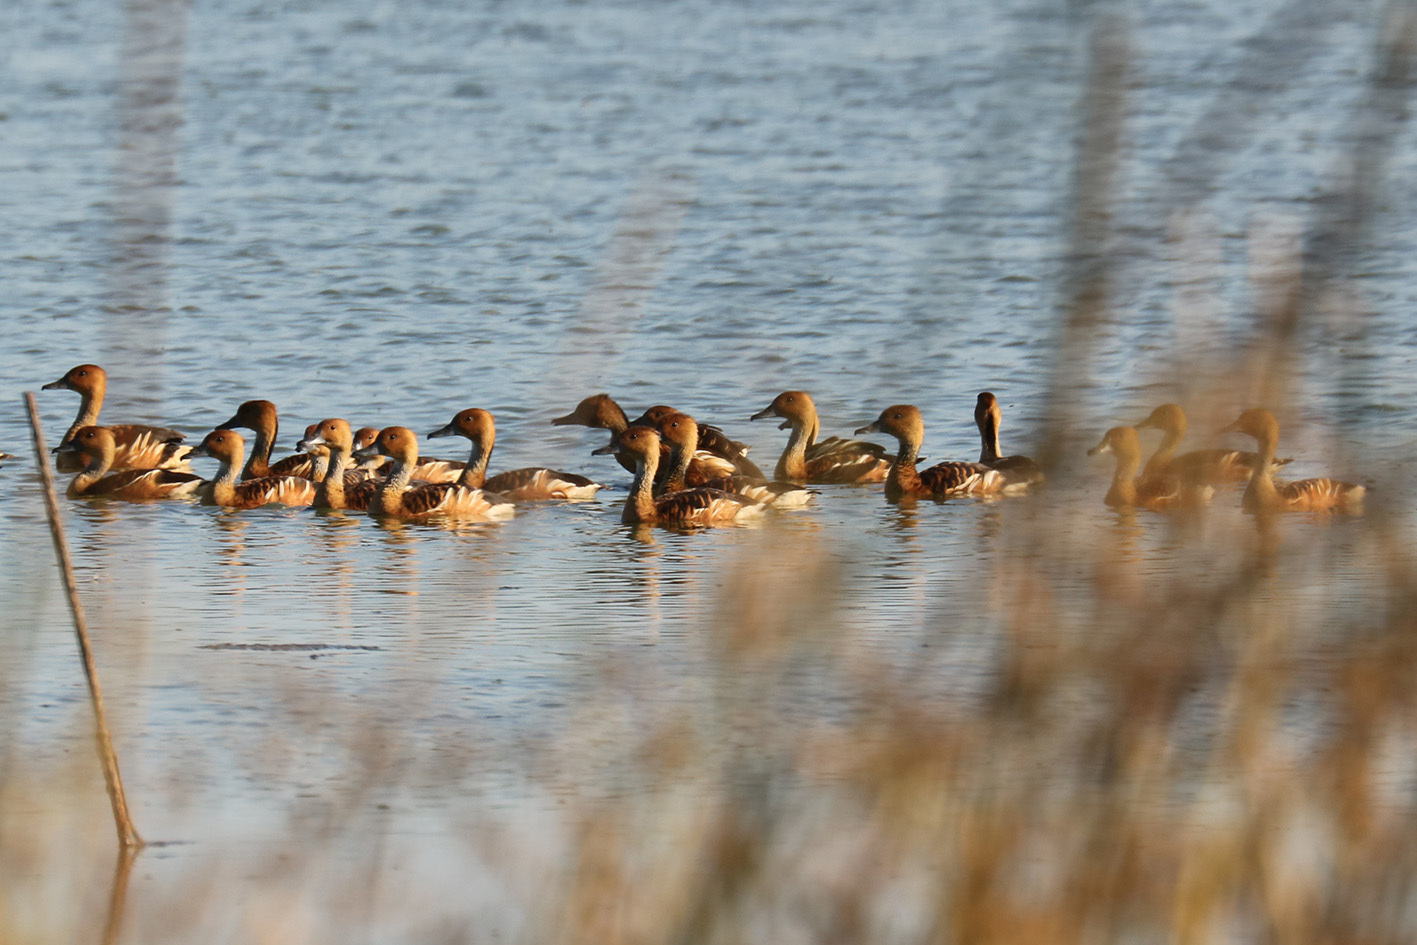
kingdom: Animalia
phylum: Chordata
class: Aves
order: Anseriformes
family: Anatidae
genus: Dendrocygna
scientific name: Dendrocygna bicolor
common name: Fulvous whistling duck
